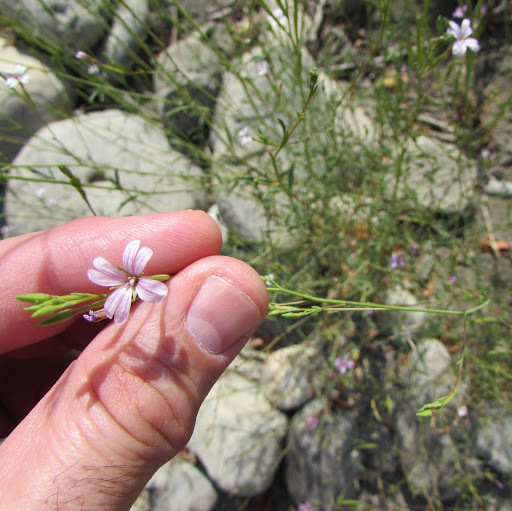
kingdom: Plantae
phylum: Tracheophyta
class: Magnoliopsida
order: Myrtales
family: Onagraceae
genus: Epilobium
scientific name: Epilobium brachycarpum
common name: Annual willowherb
